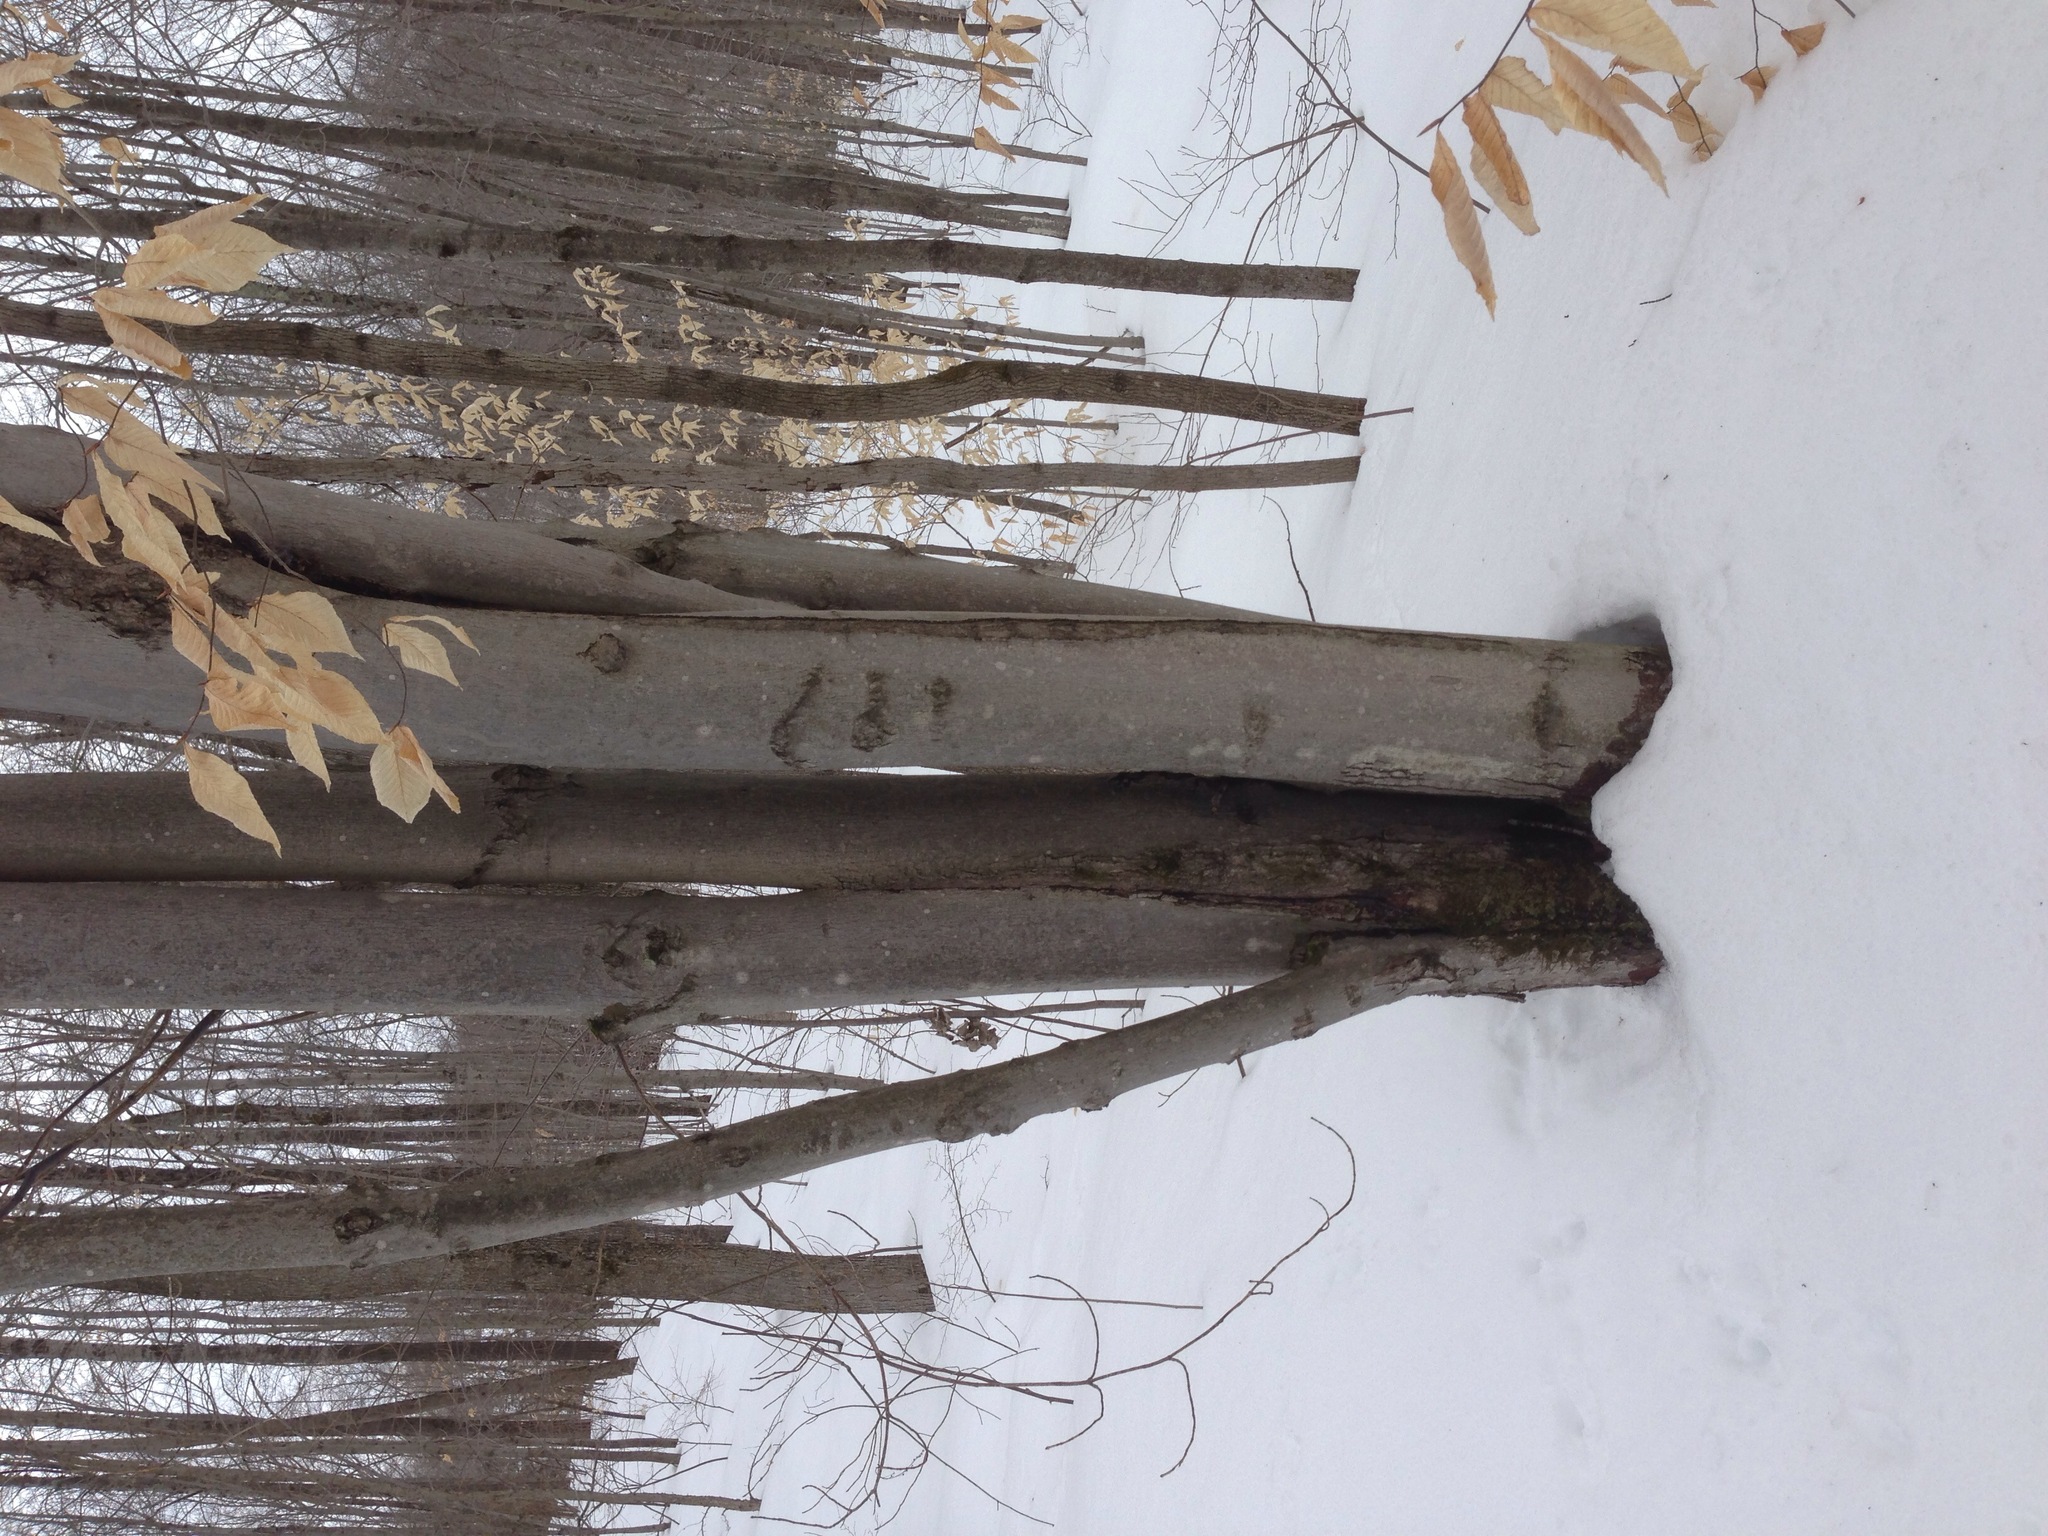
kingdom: Plantae
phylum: Tracheophyta
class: Magnoliopsida
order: Fagales
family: Fagaceae
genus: Fagus
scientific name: Fagus grandifolia
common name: American beech
